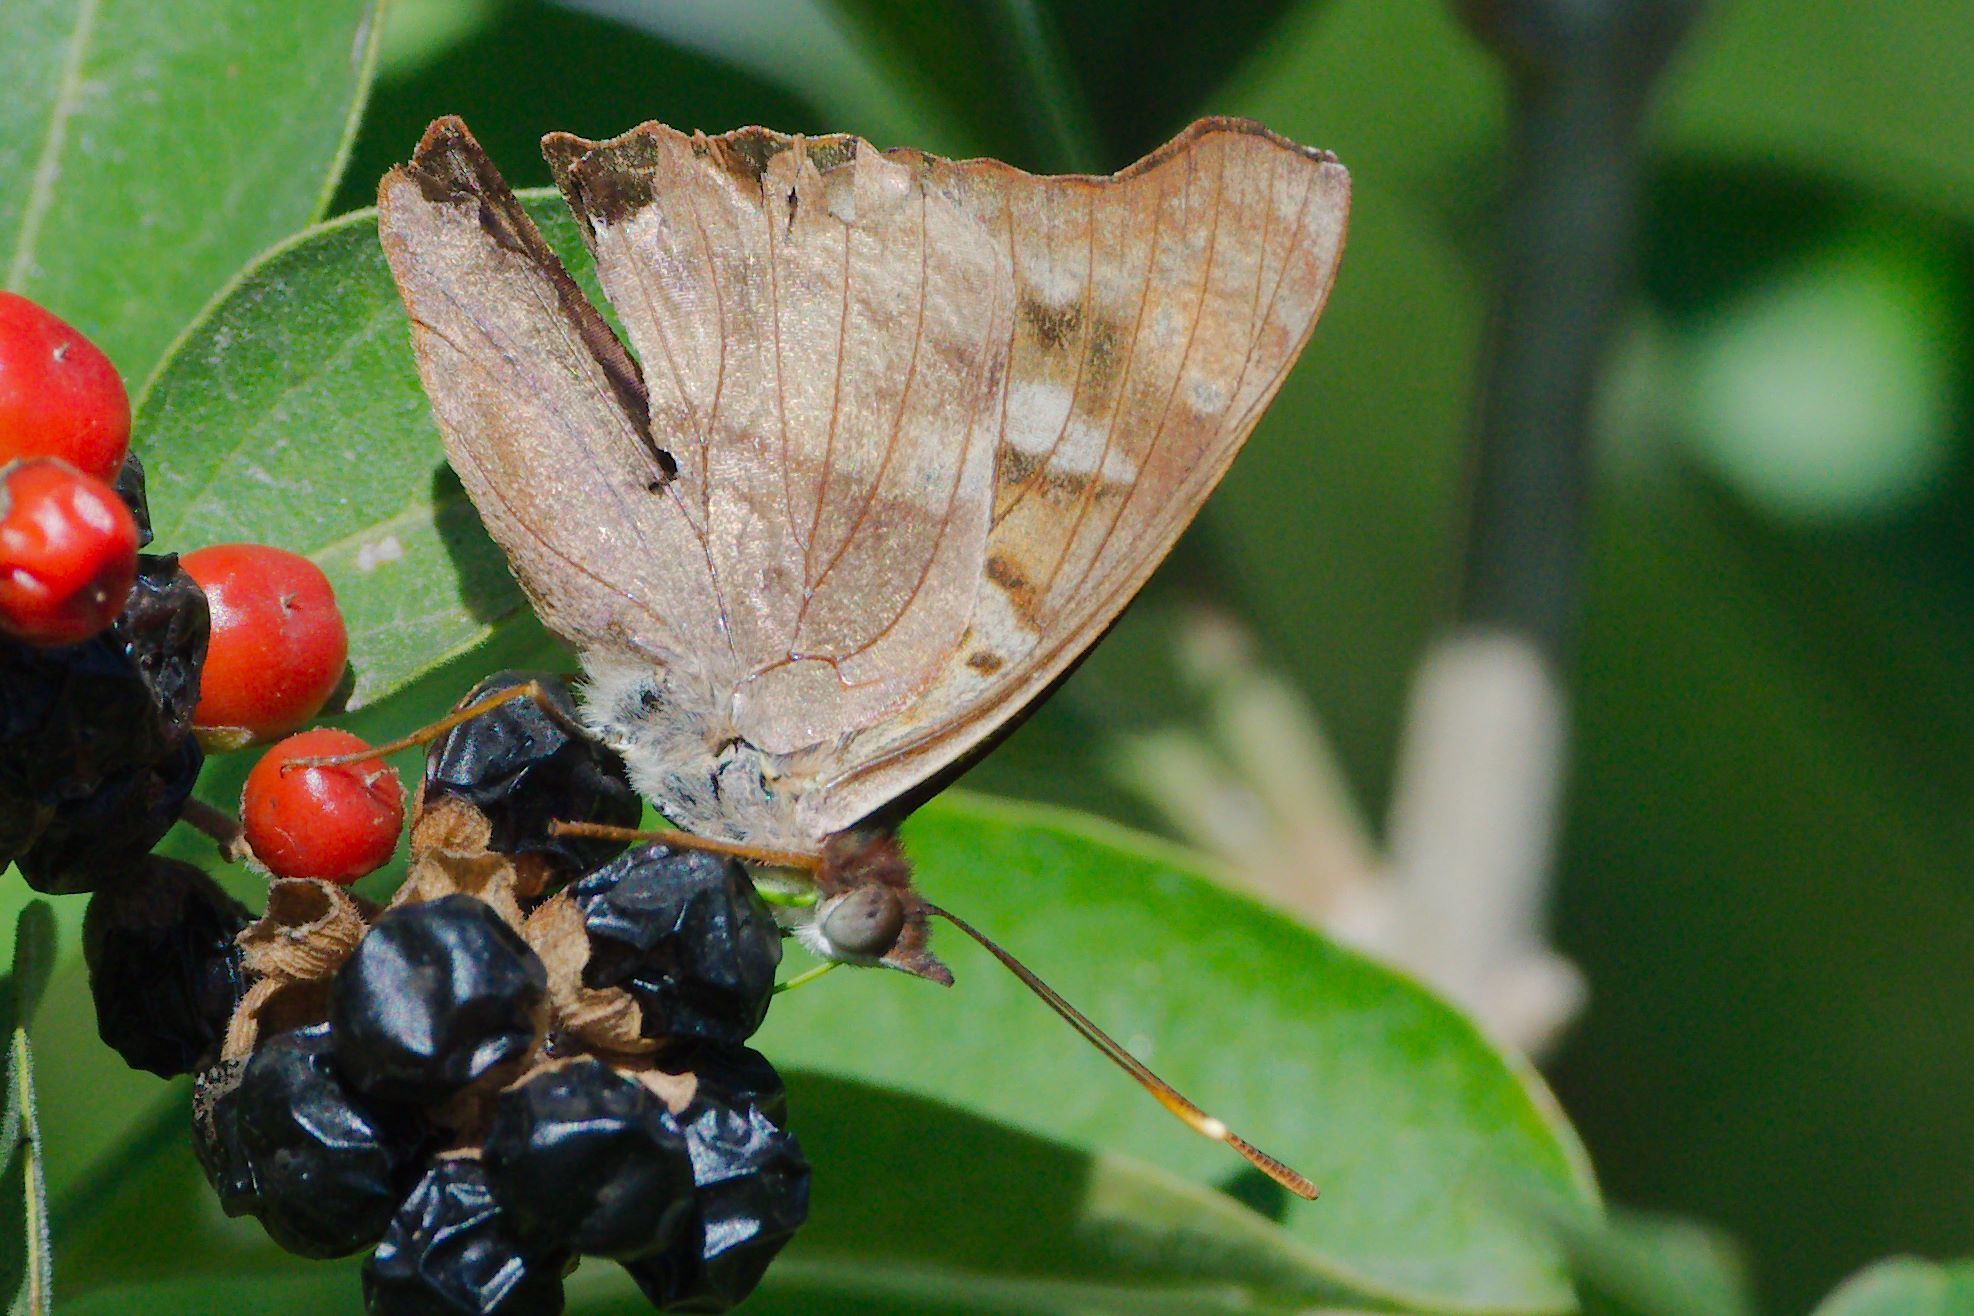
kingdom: Animalia
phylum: Arthropoda
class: Insecta
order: Lepidoptera
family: Nymphalidae
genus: Doxocopa
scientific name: Doxocopa pavon
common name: Pavon emperor
